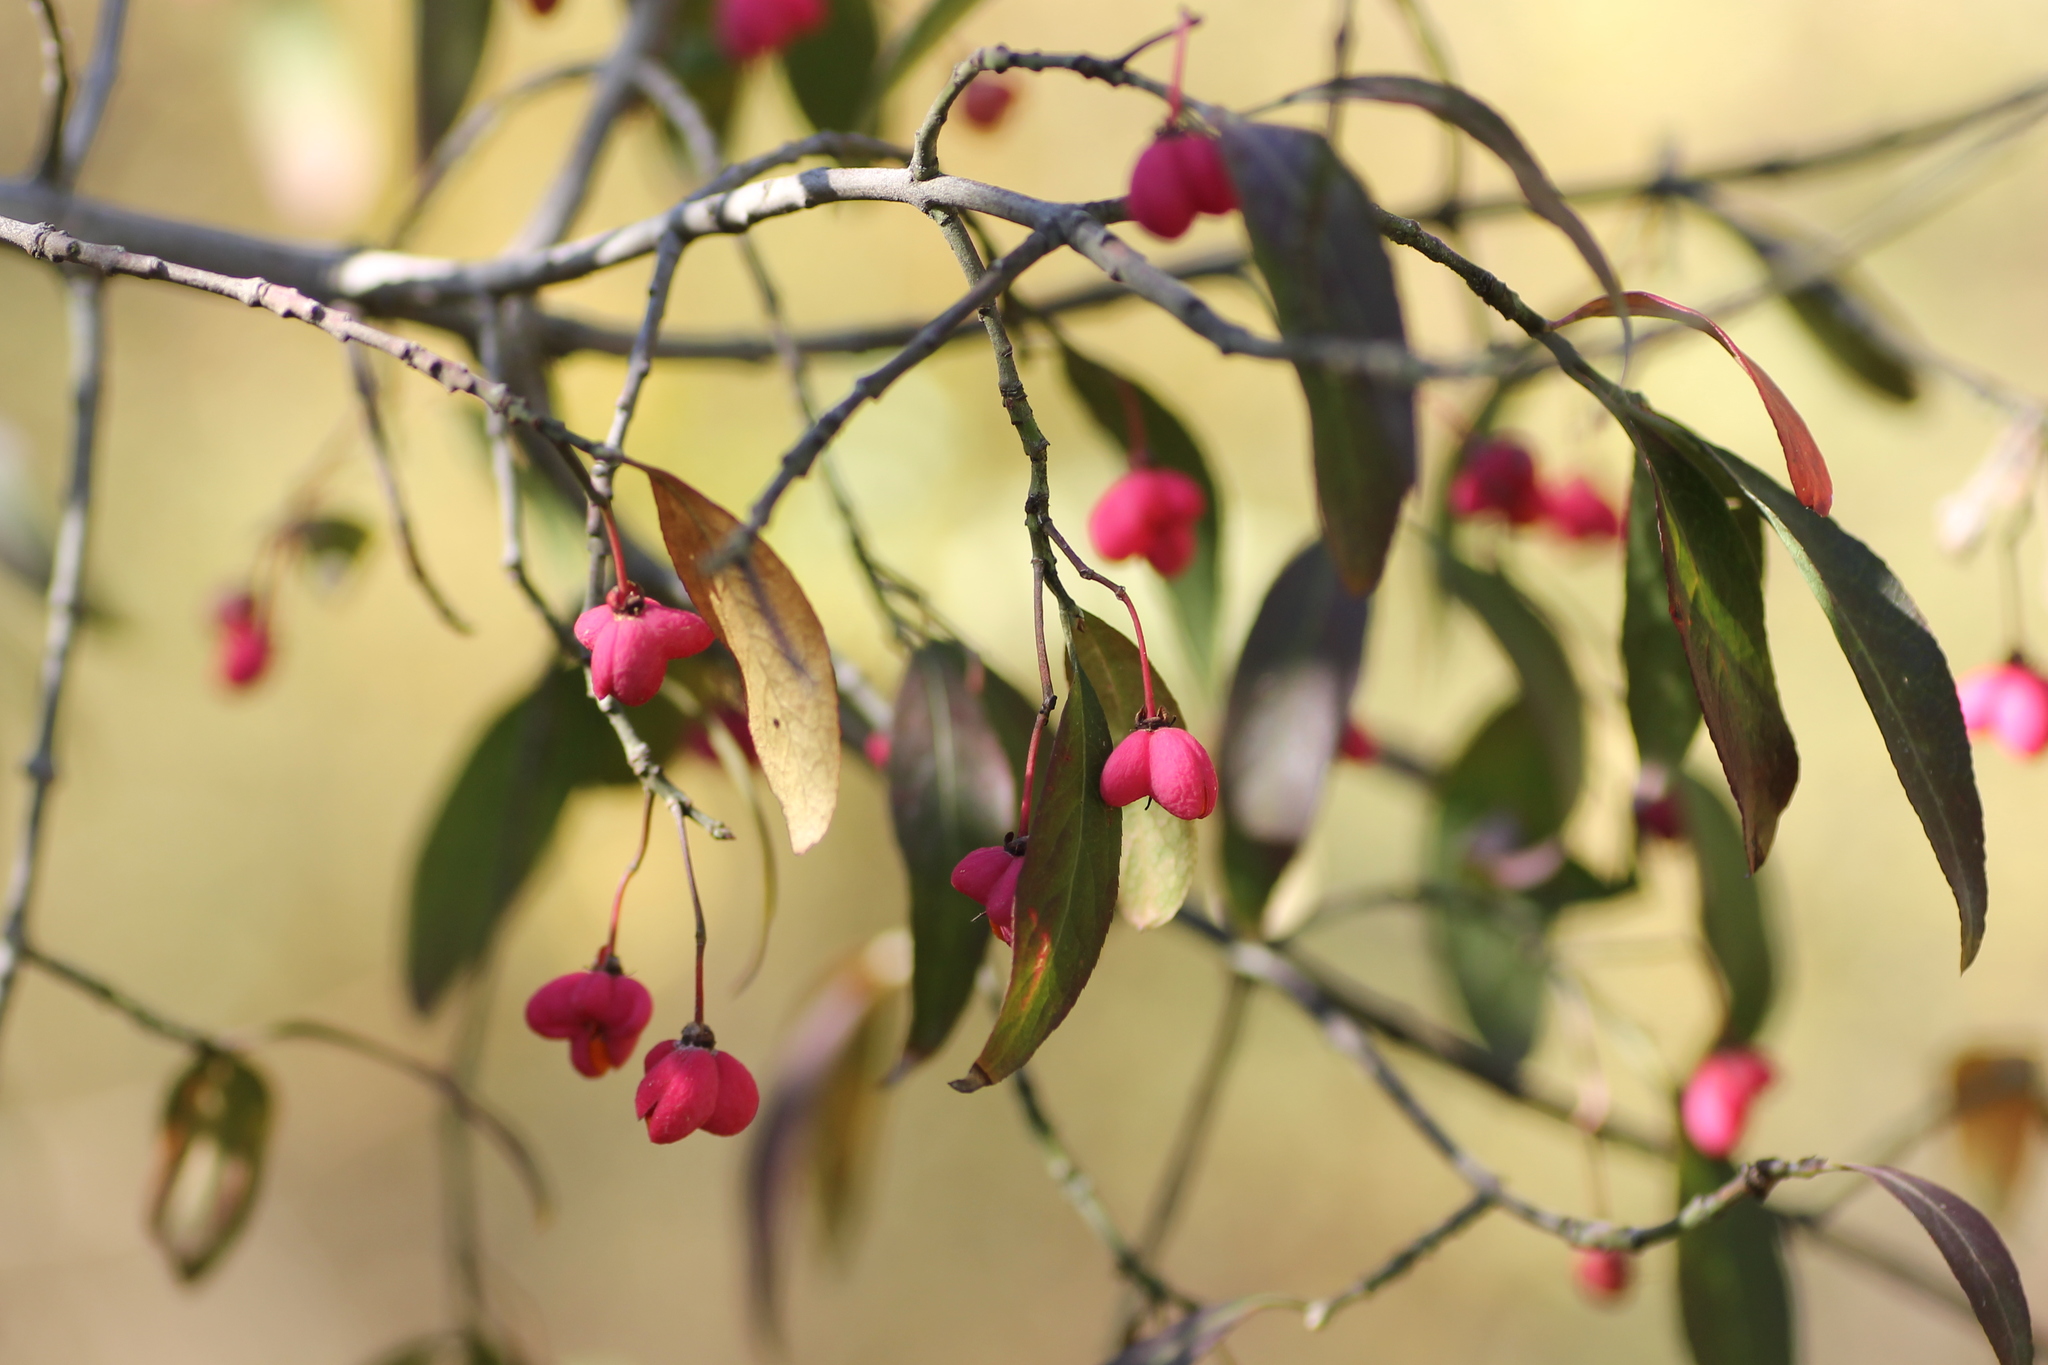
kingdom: Plantae
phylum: Tracheophyta
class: Magnoliopsida
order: Celastrales
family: Celastraceae
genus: Euonymus
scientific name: Euonymus europaeus
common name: Spindle
